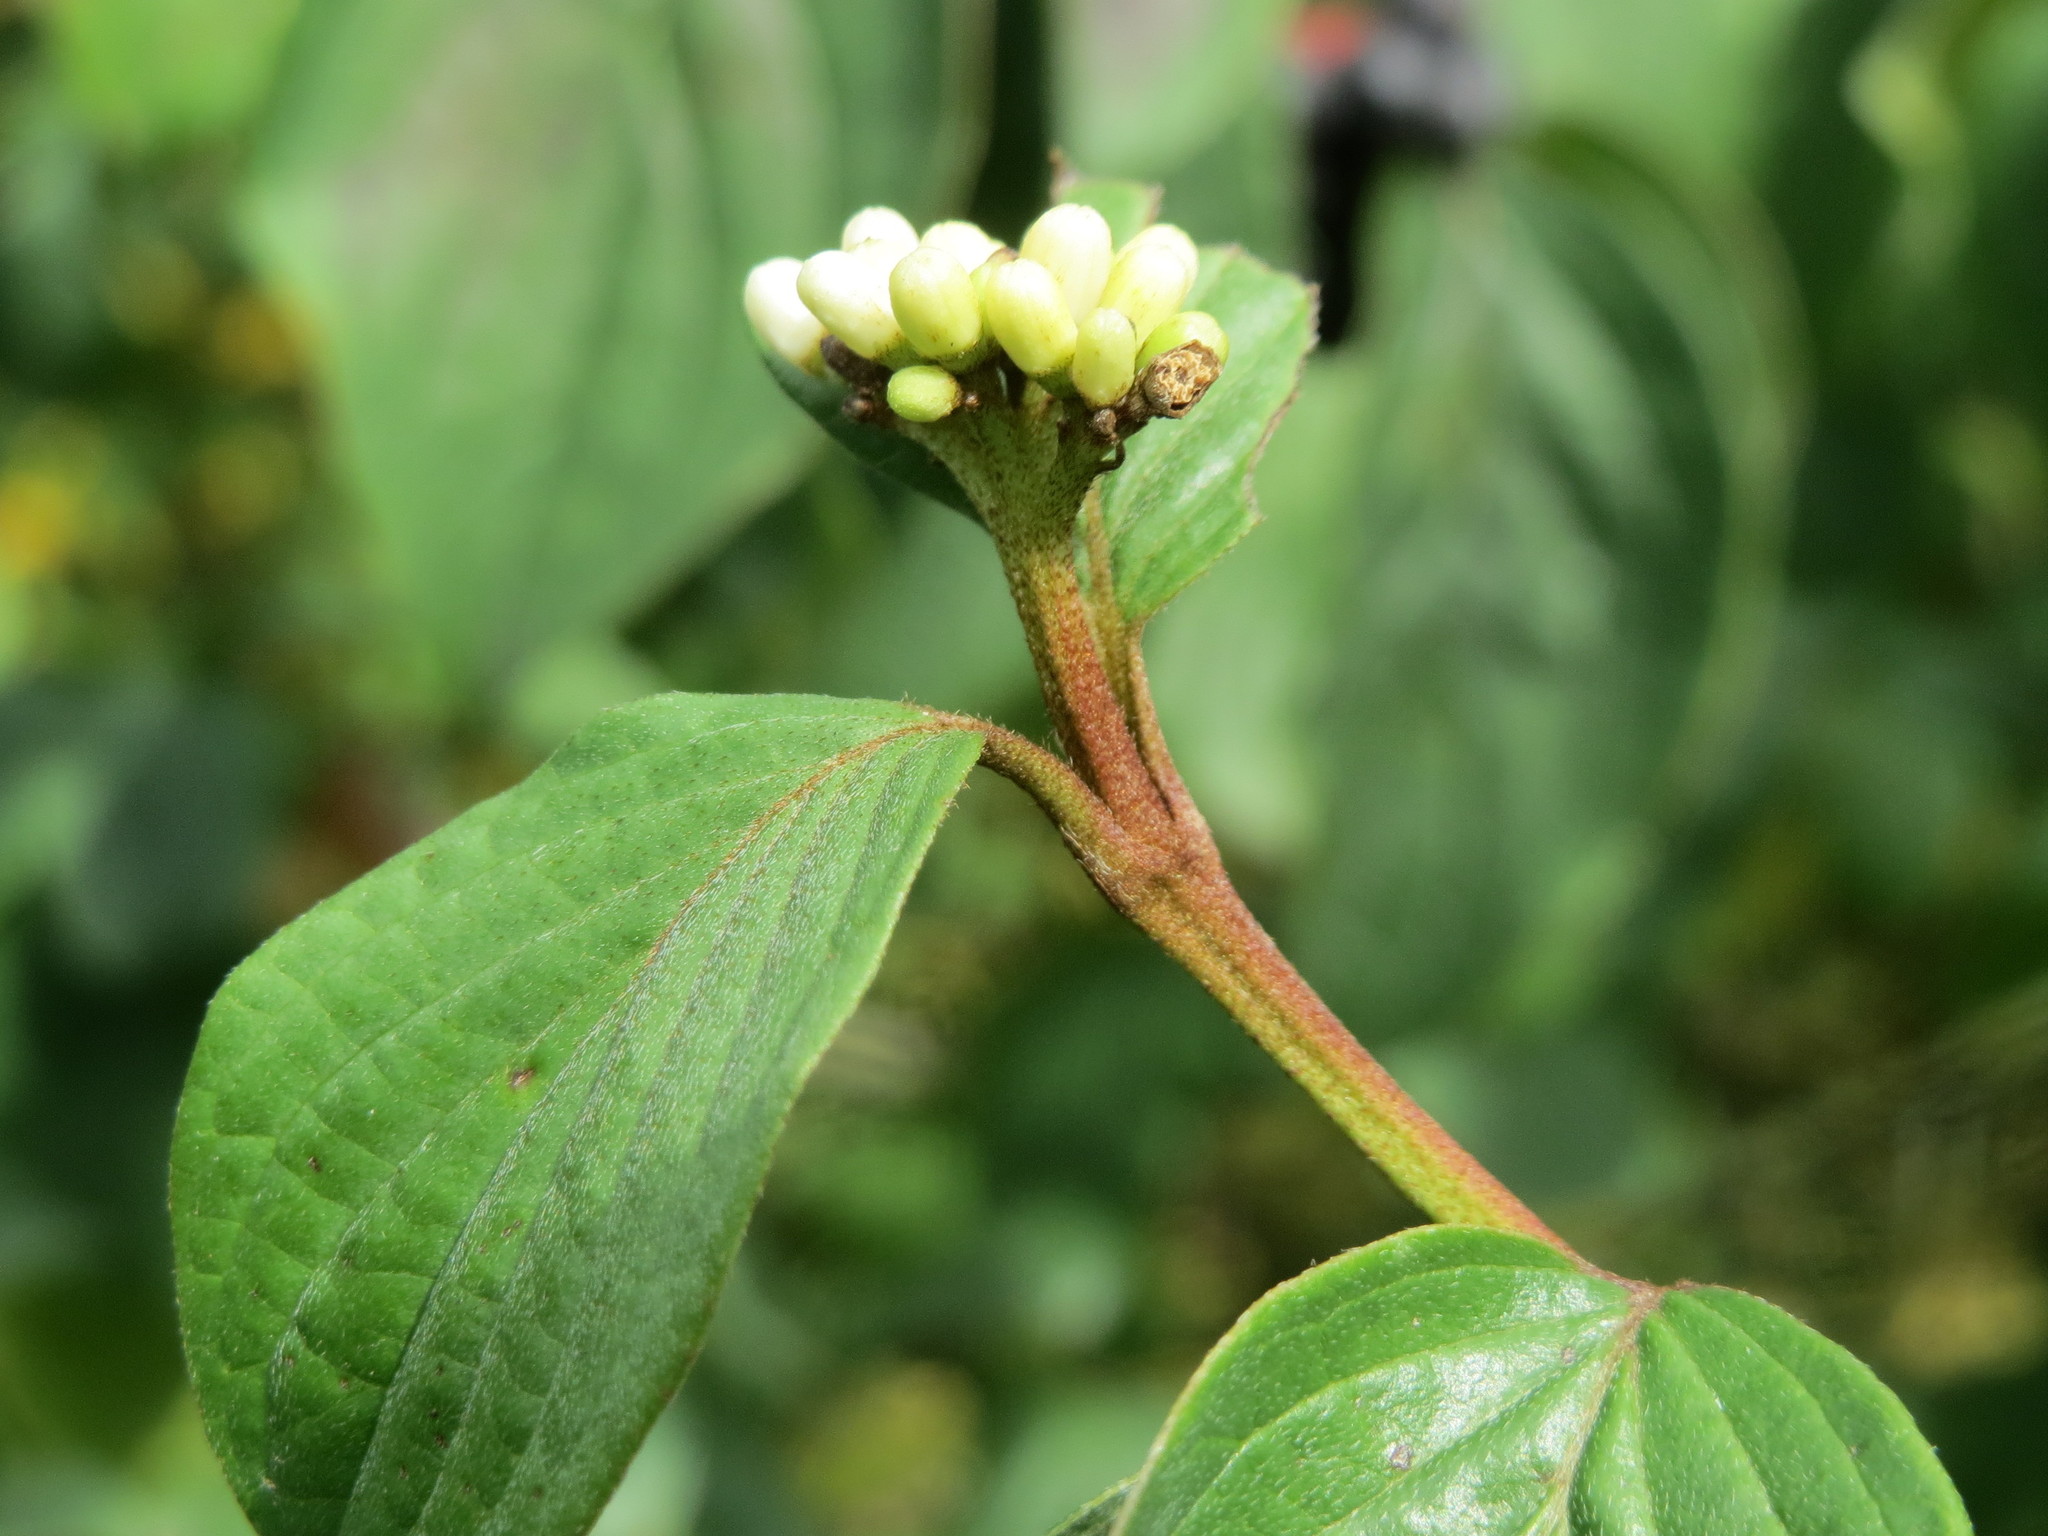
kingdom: Plantae
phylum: Tracheophyta
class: Magnoliopsida
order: Cornales
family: Cornaceae
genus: Cornus
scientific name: Cornus sanguinea
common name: Dogwood
